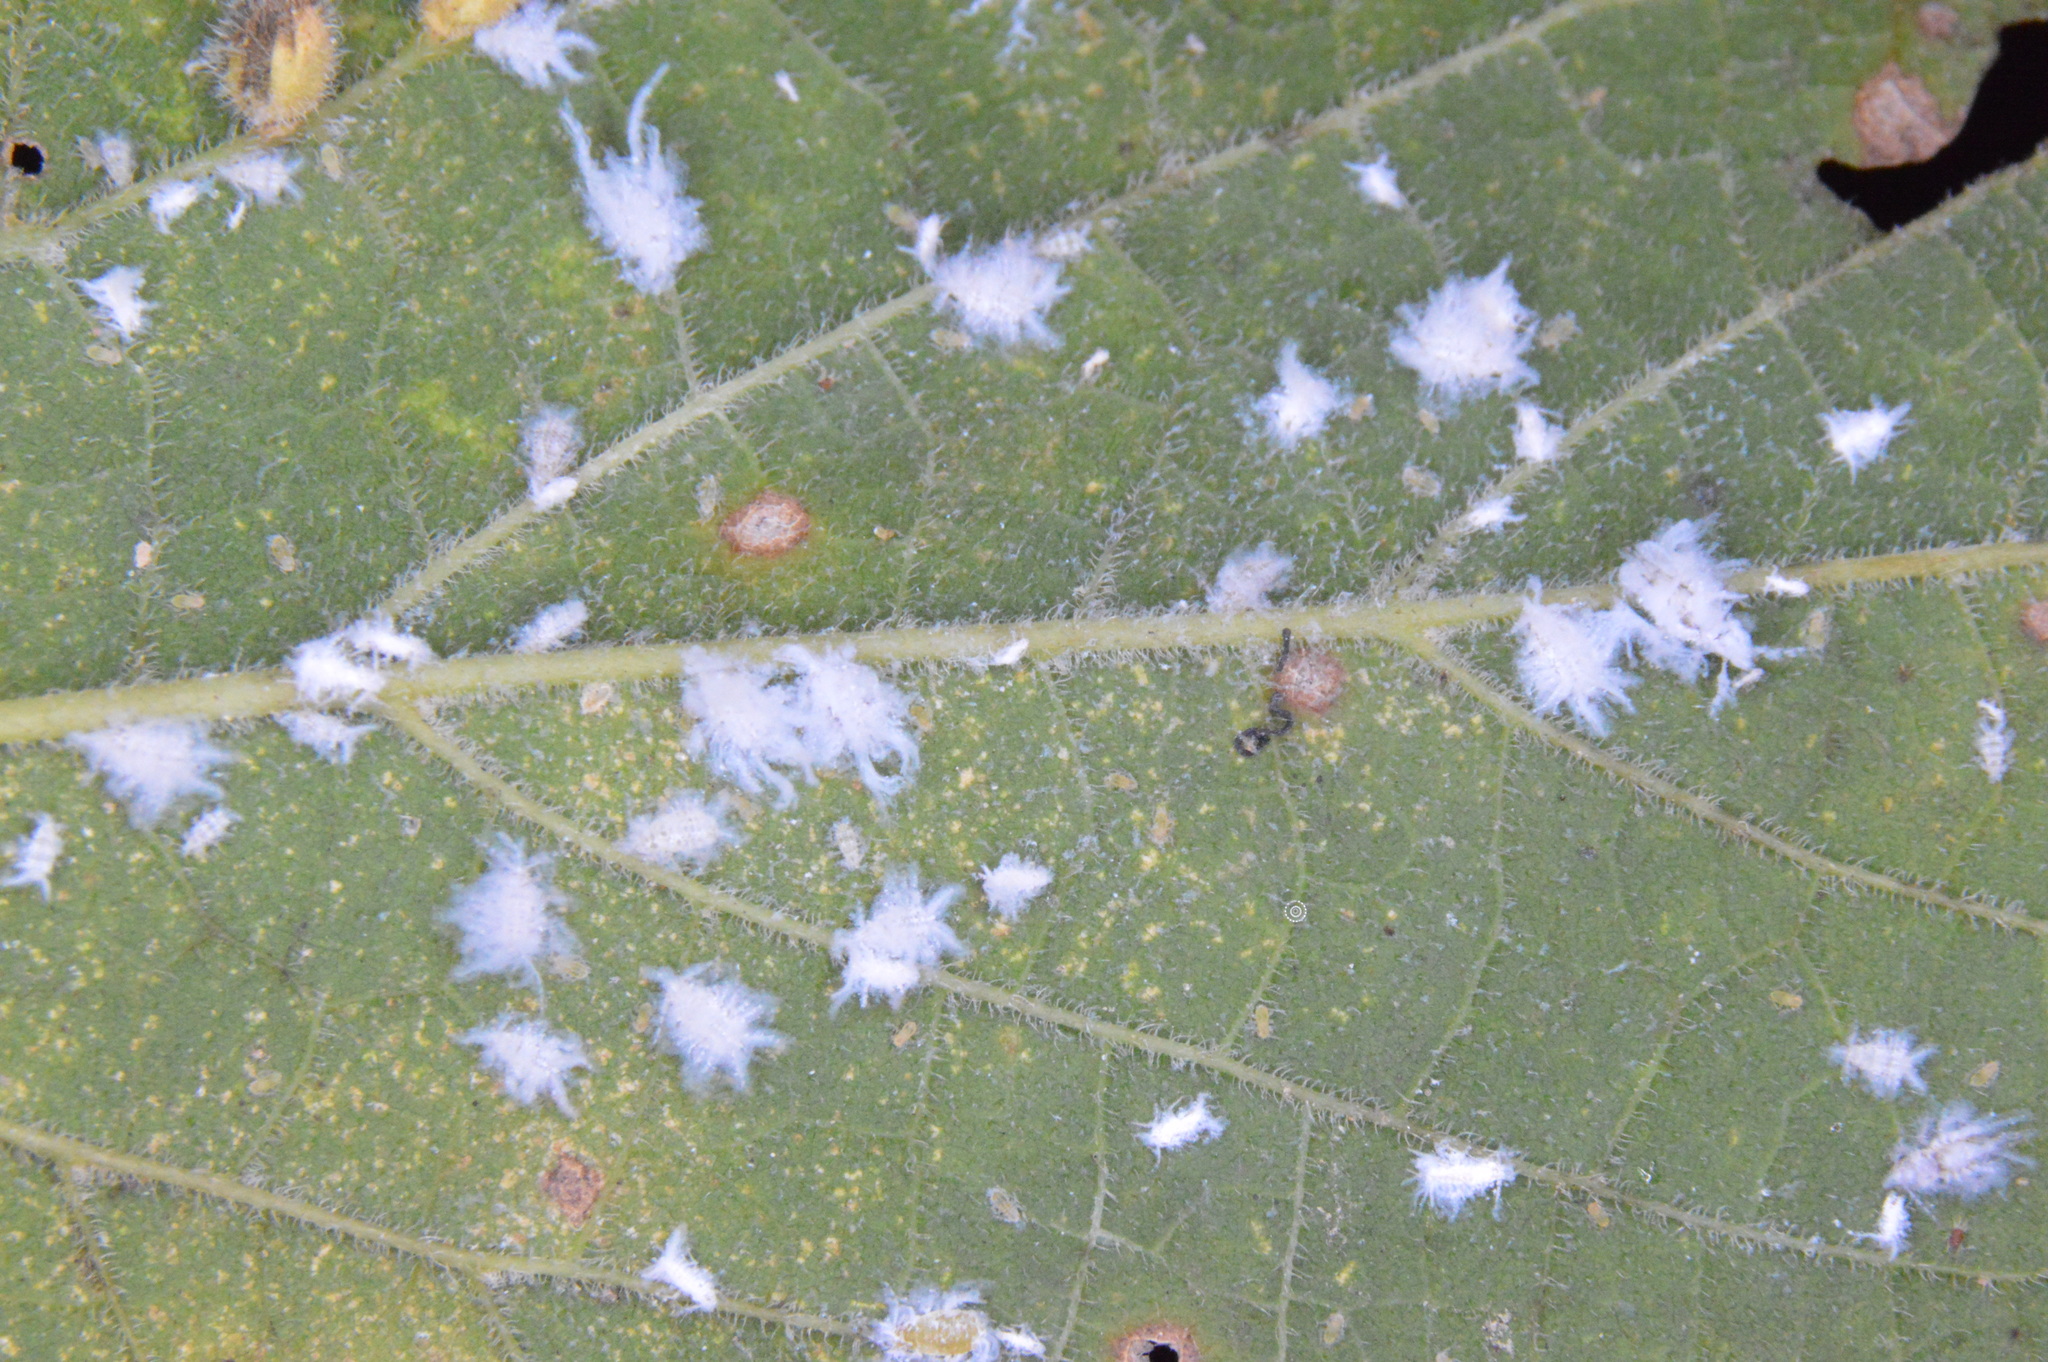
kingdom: Animalia
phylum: Arthropoda
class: Insecta
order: Hemiptera
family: Aphididae
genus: Shivaphis
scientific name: Shivaphis celti
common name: Asian wooly hackberry aphid
